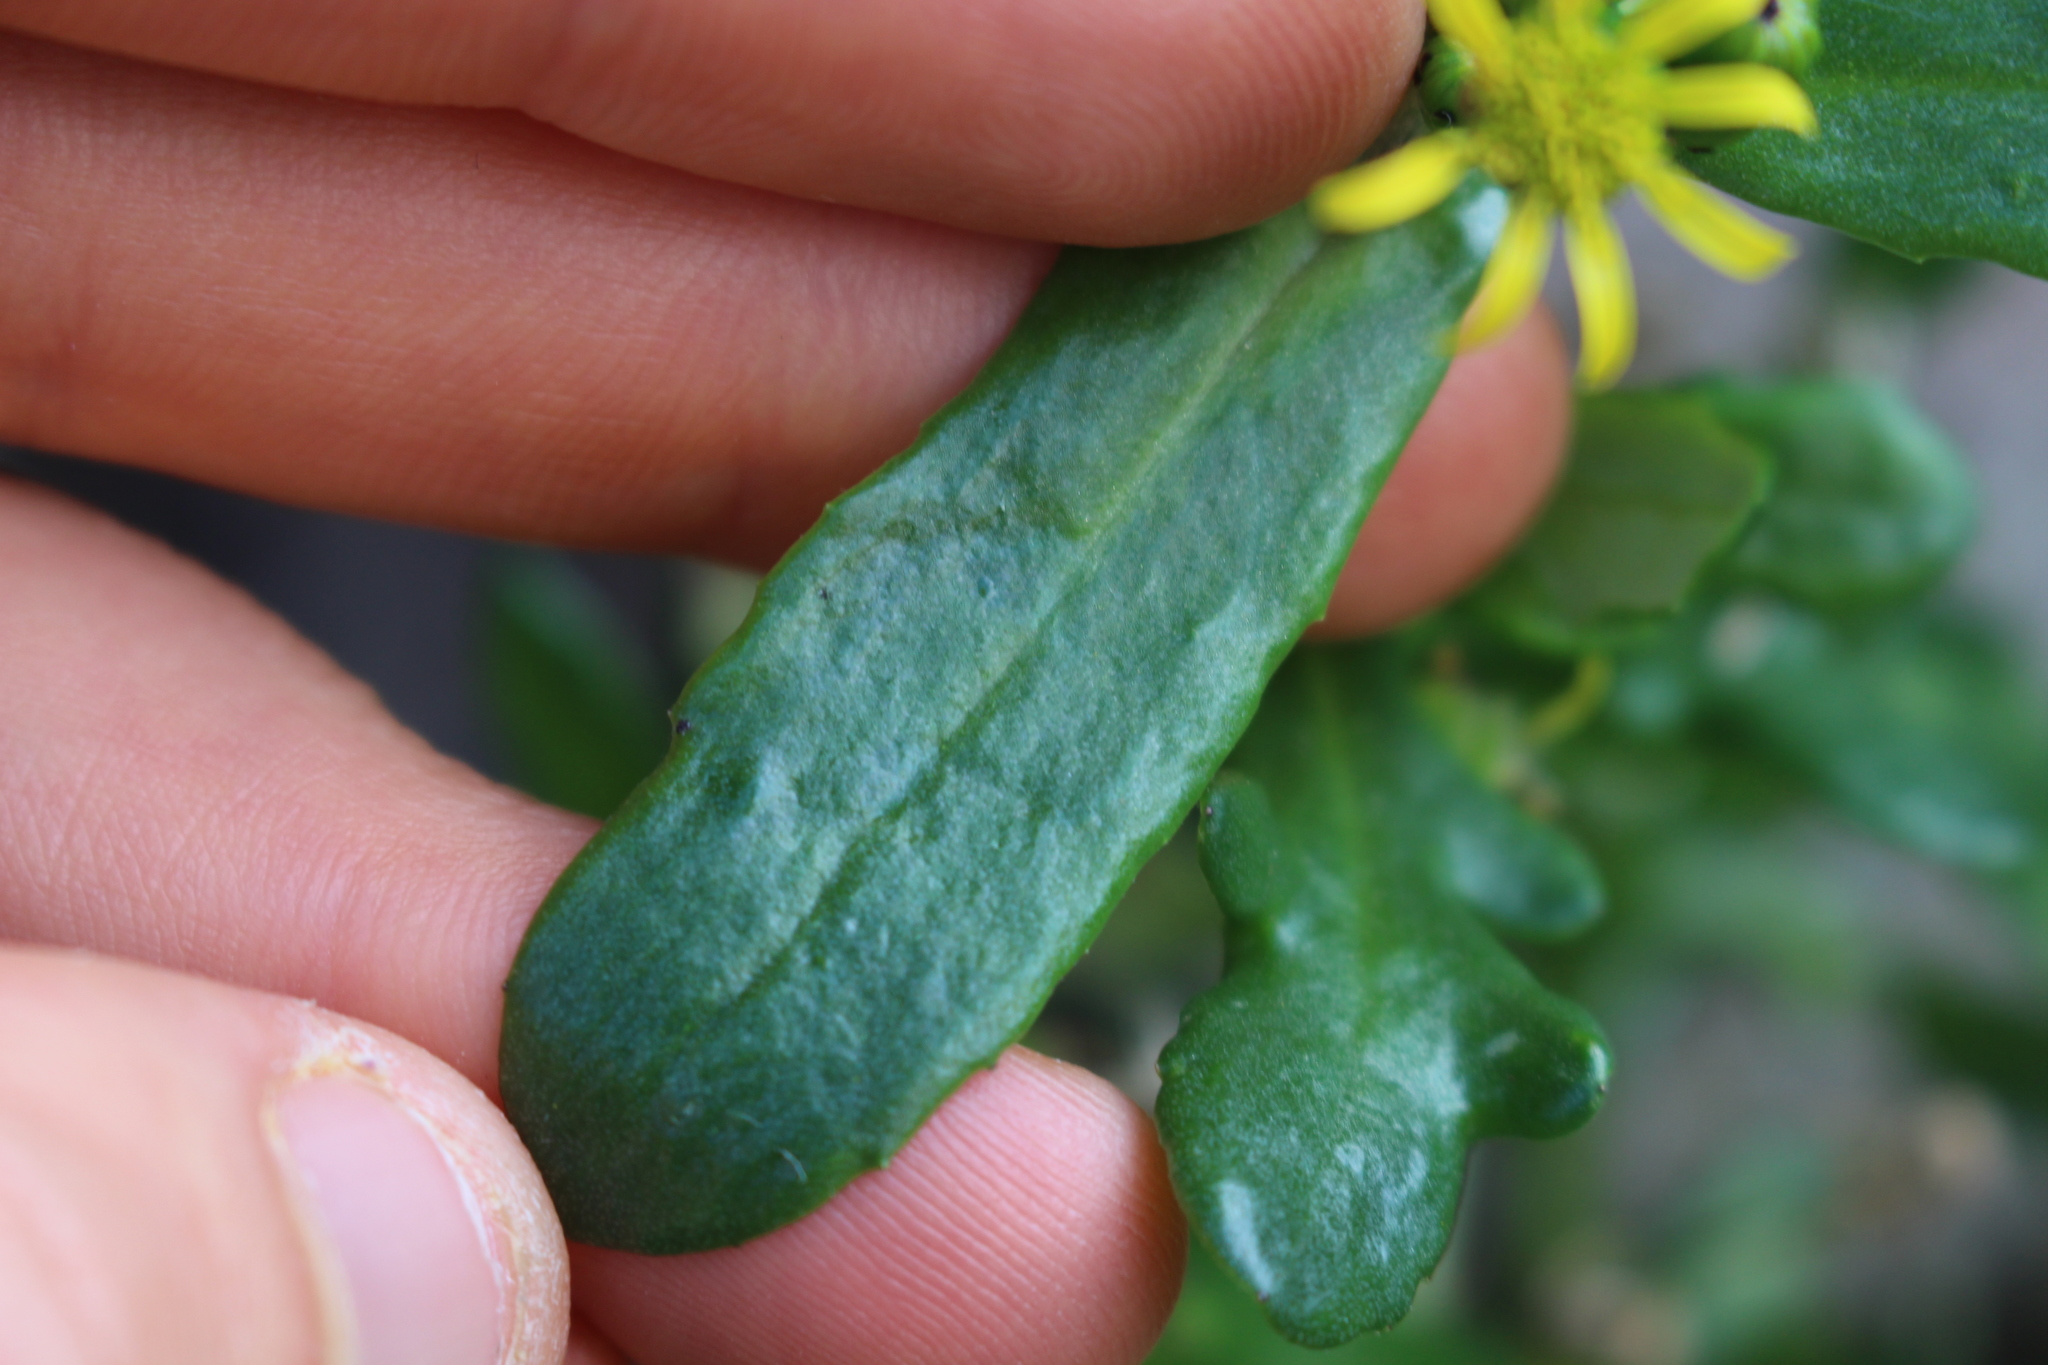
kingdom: Plantae
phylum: Tracheophyta
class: Magnoliopsida
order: Asterales
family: Asteraceae
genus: Senecio
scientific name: Senecio carnosulus
